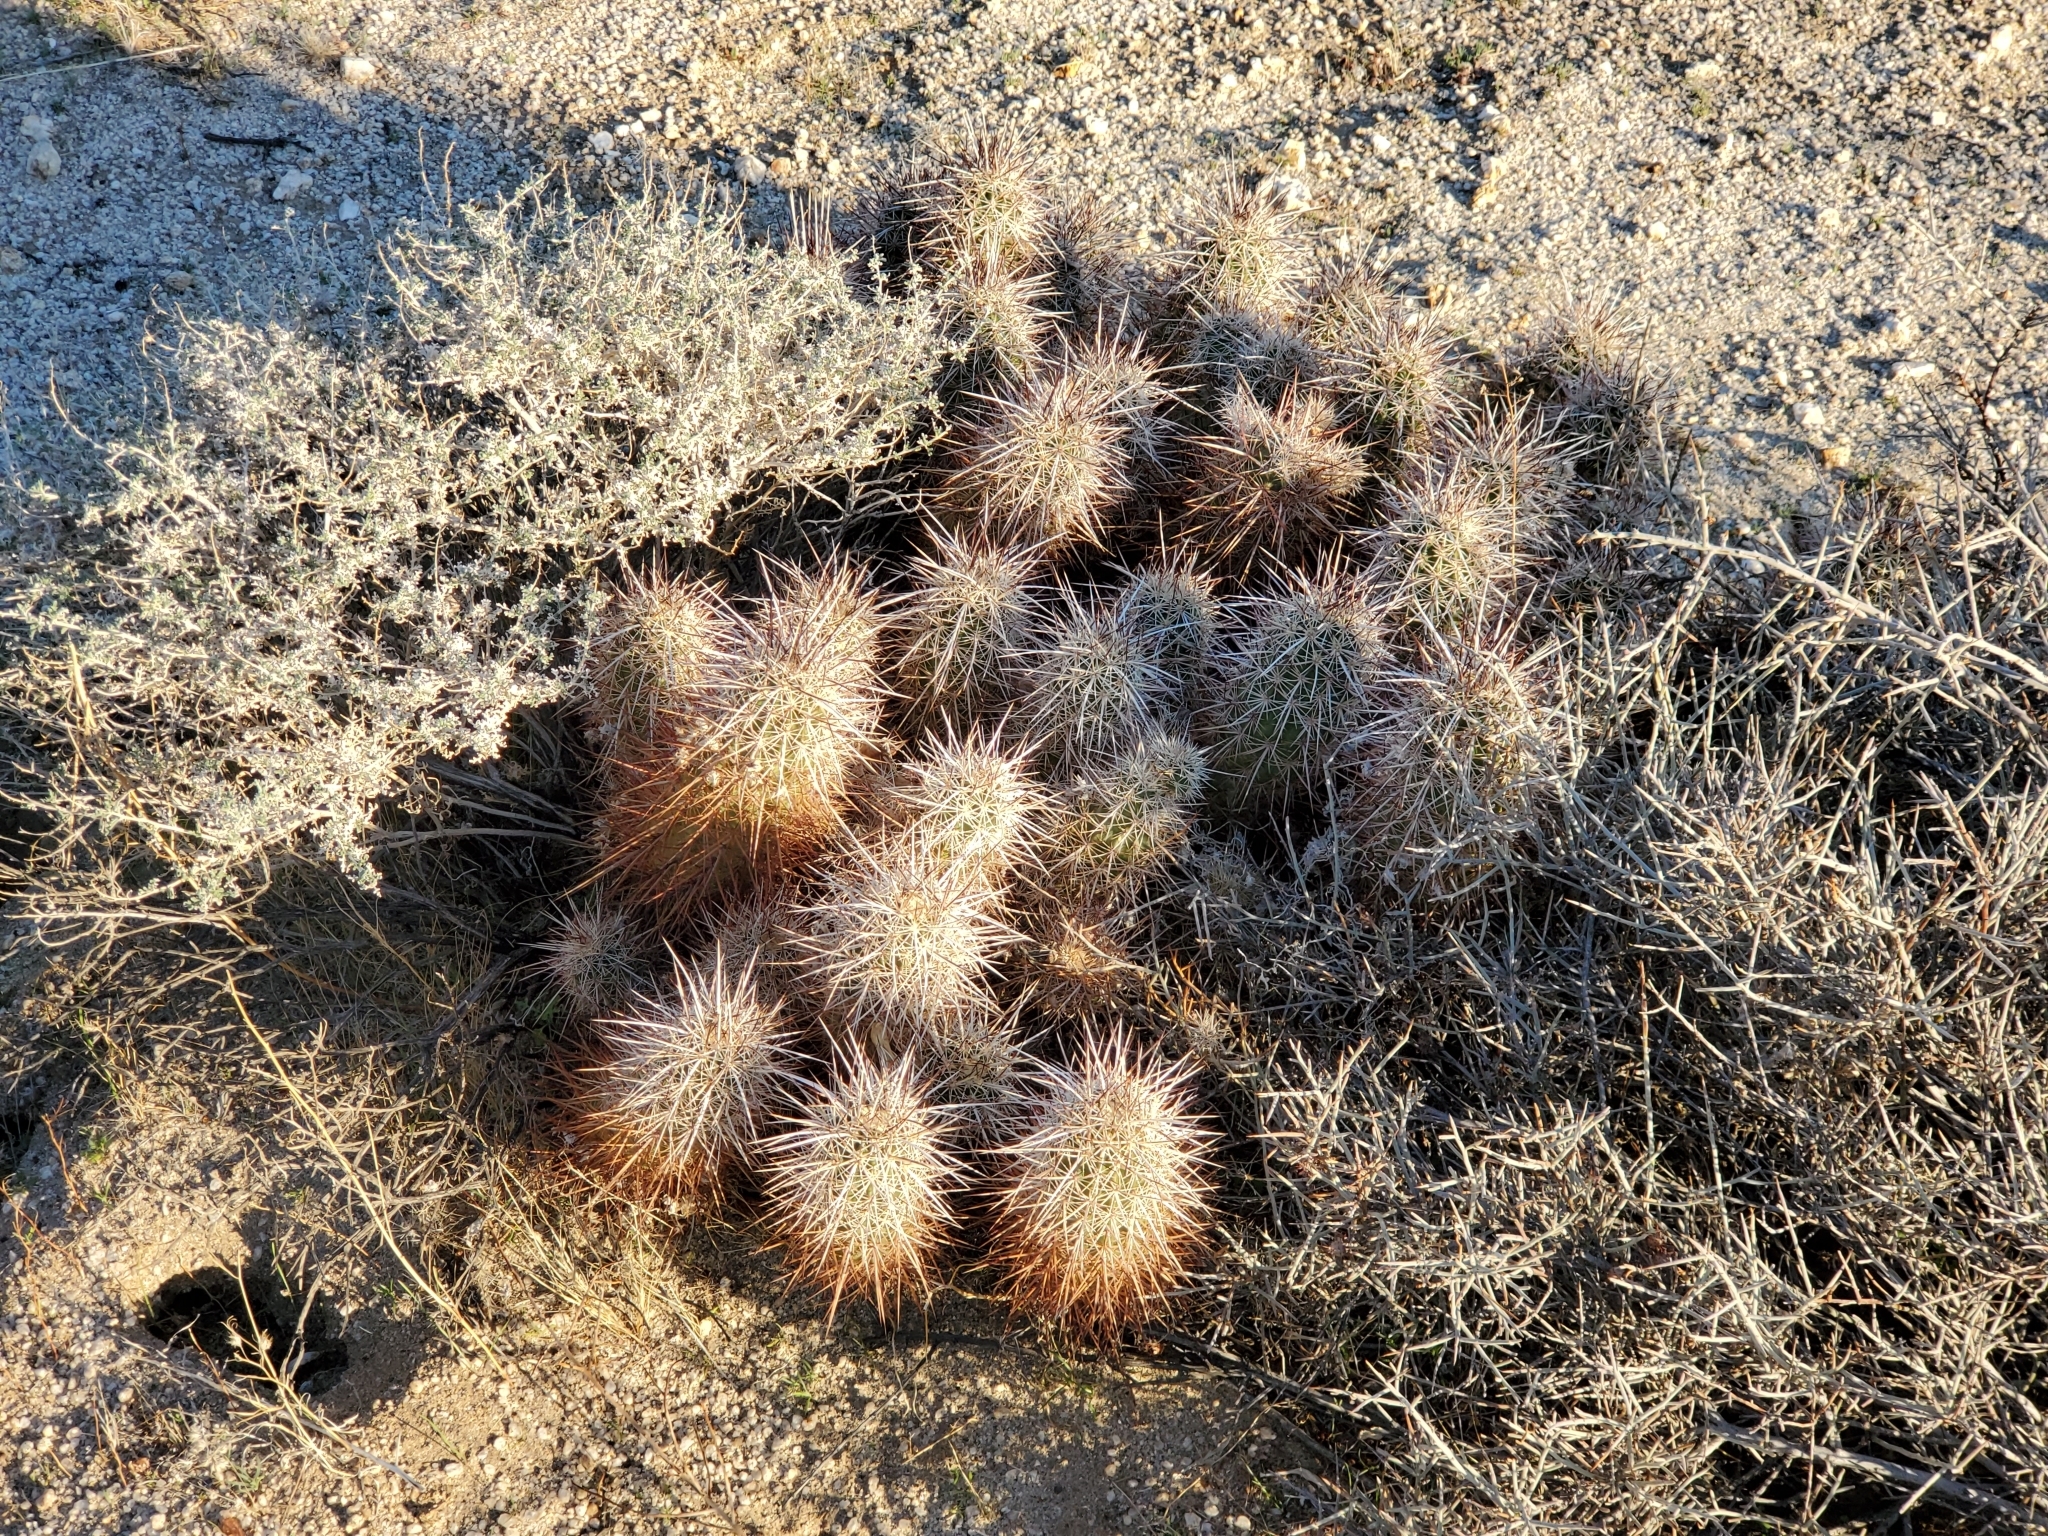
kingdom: Plantae
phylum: Tracheophyta
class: Magnoliopsida
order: Caryophyllales
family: Cactaceae
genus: Echinocereus
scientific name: Echinocereus engelmannii
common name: Engelmann's hedgehog cactus
